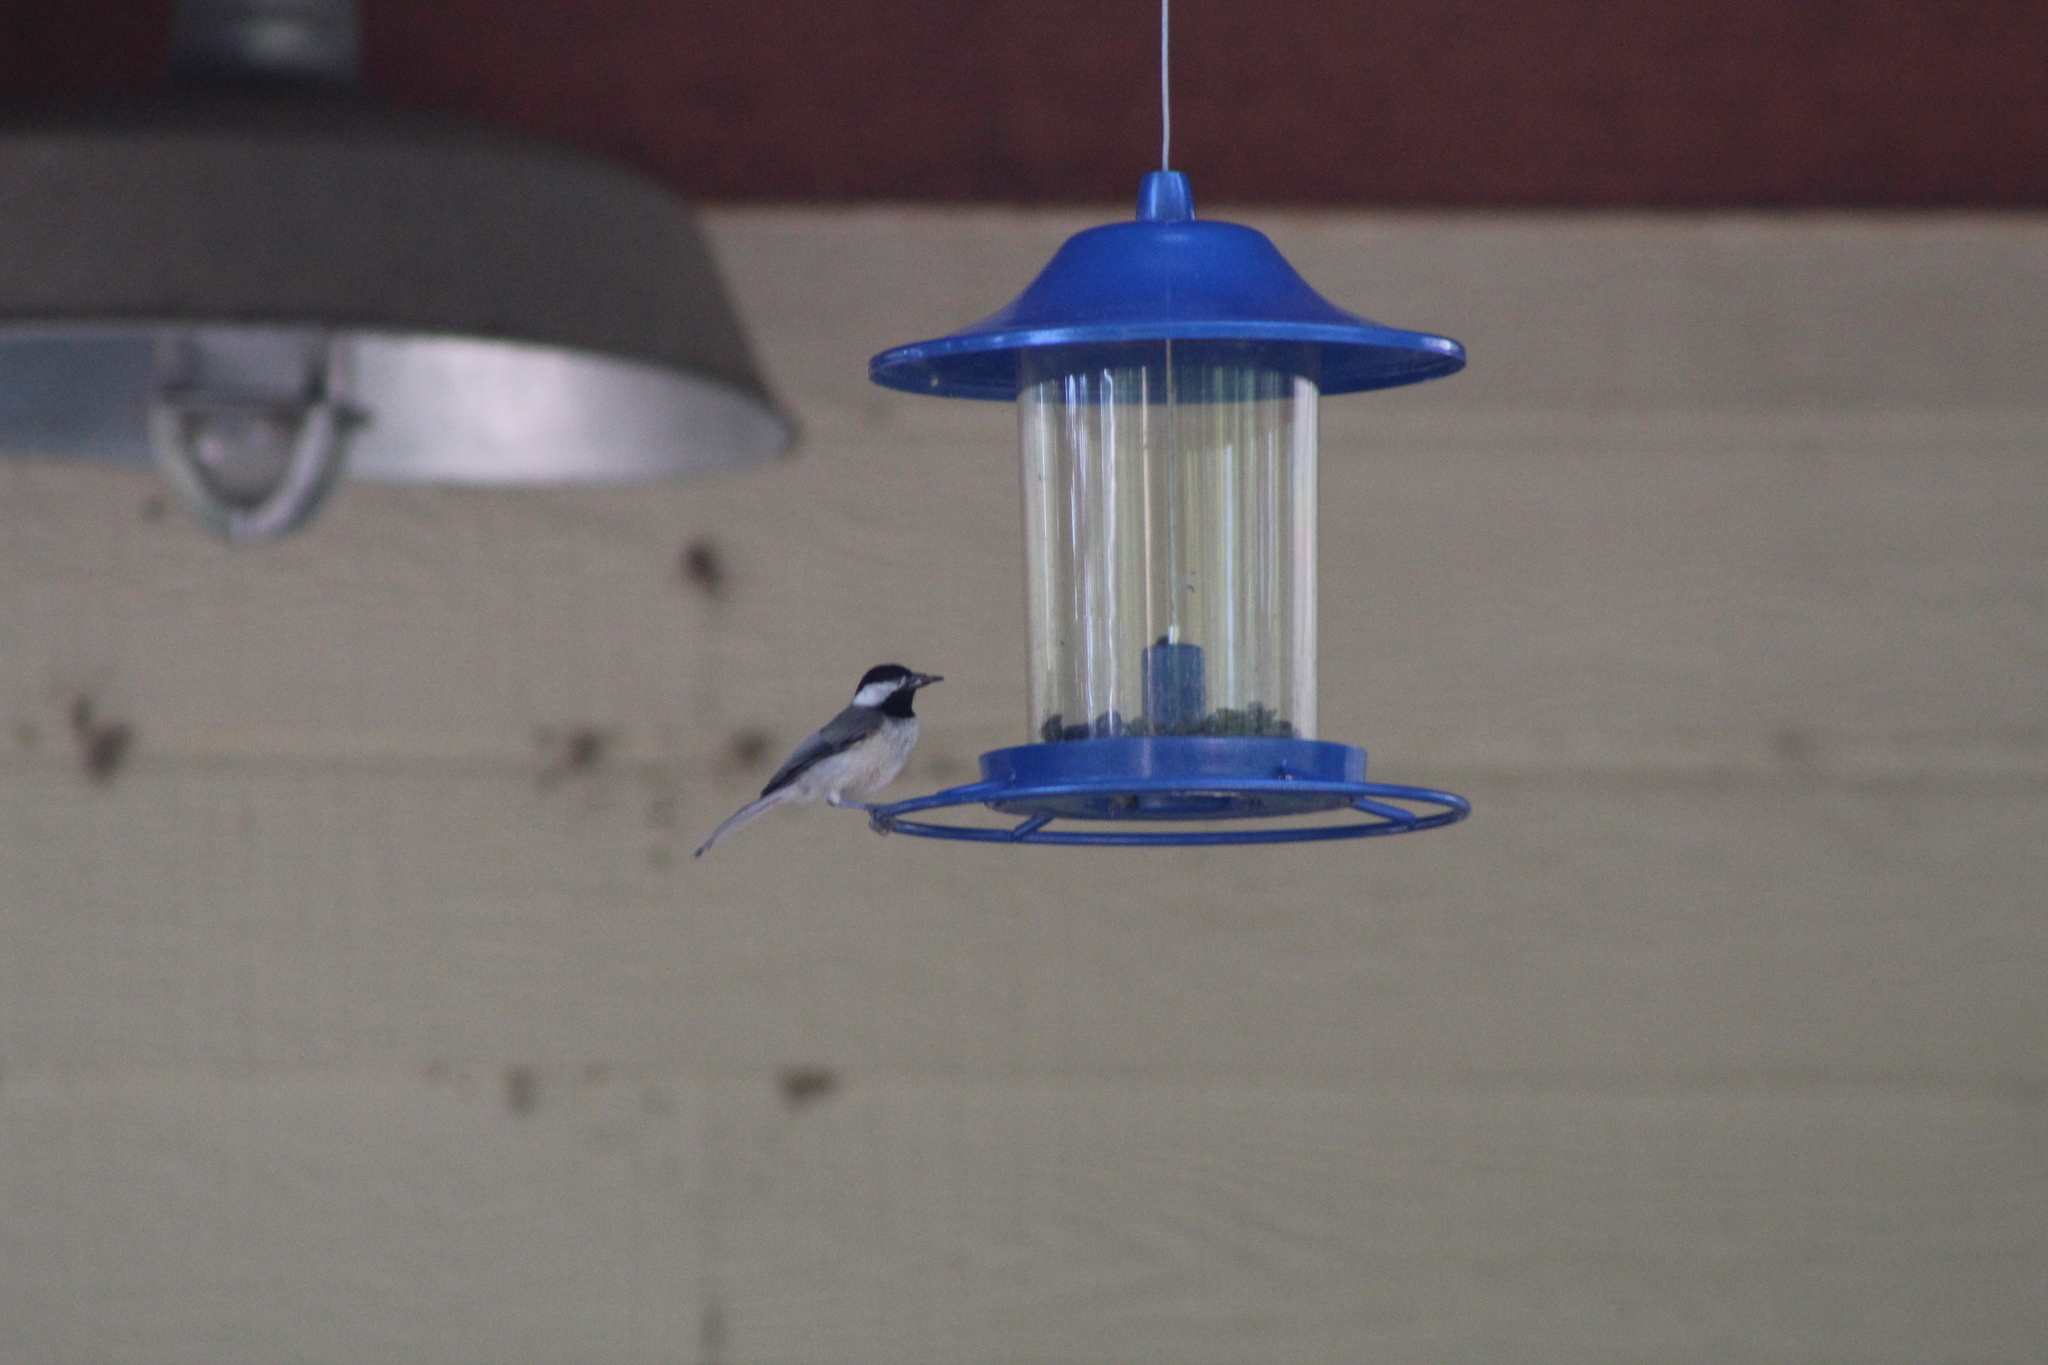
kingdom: Animalia
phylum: Chordata
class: Aves
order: Passeriformes
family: Paridae
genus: Poecile
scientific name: Poecile carolinensis
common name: Carolina chickadee
